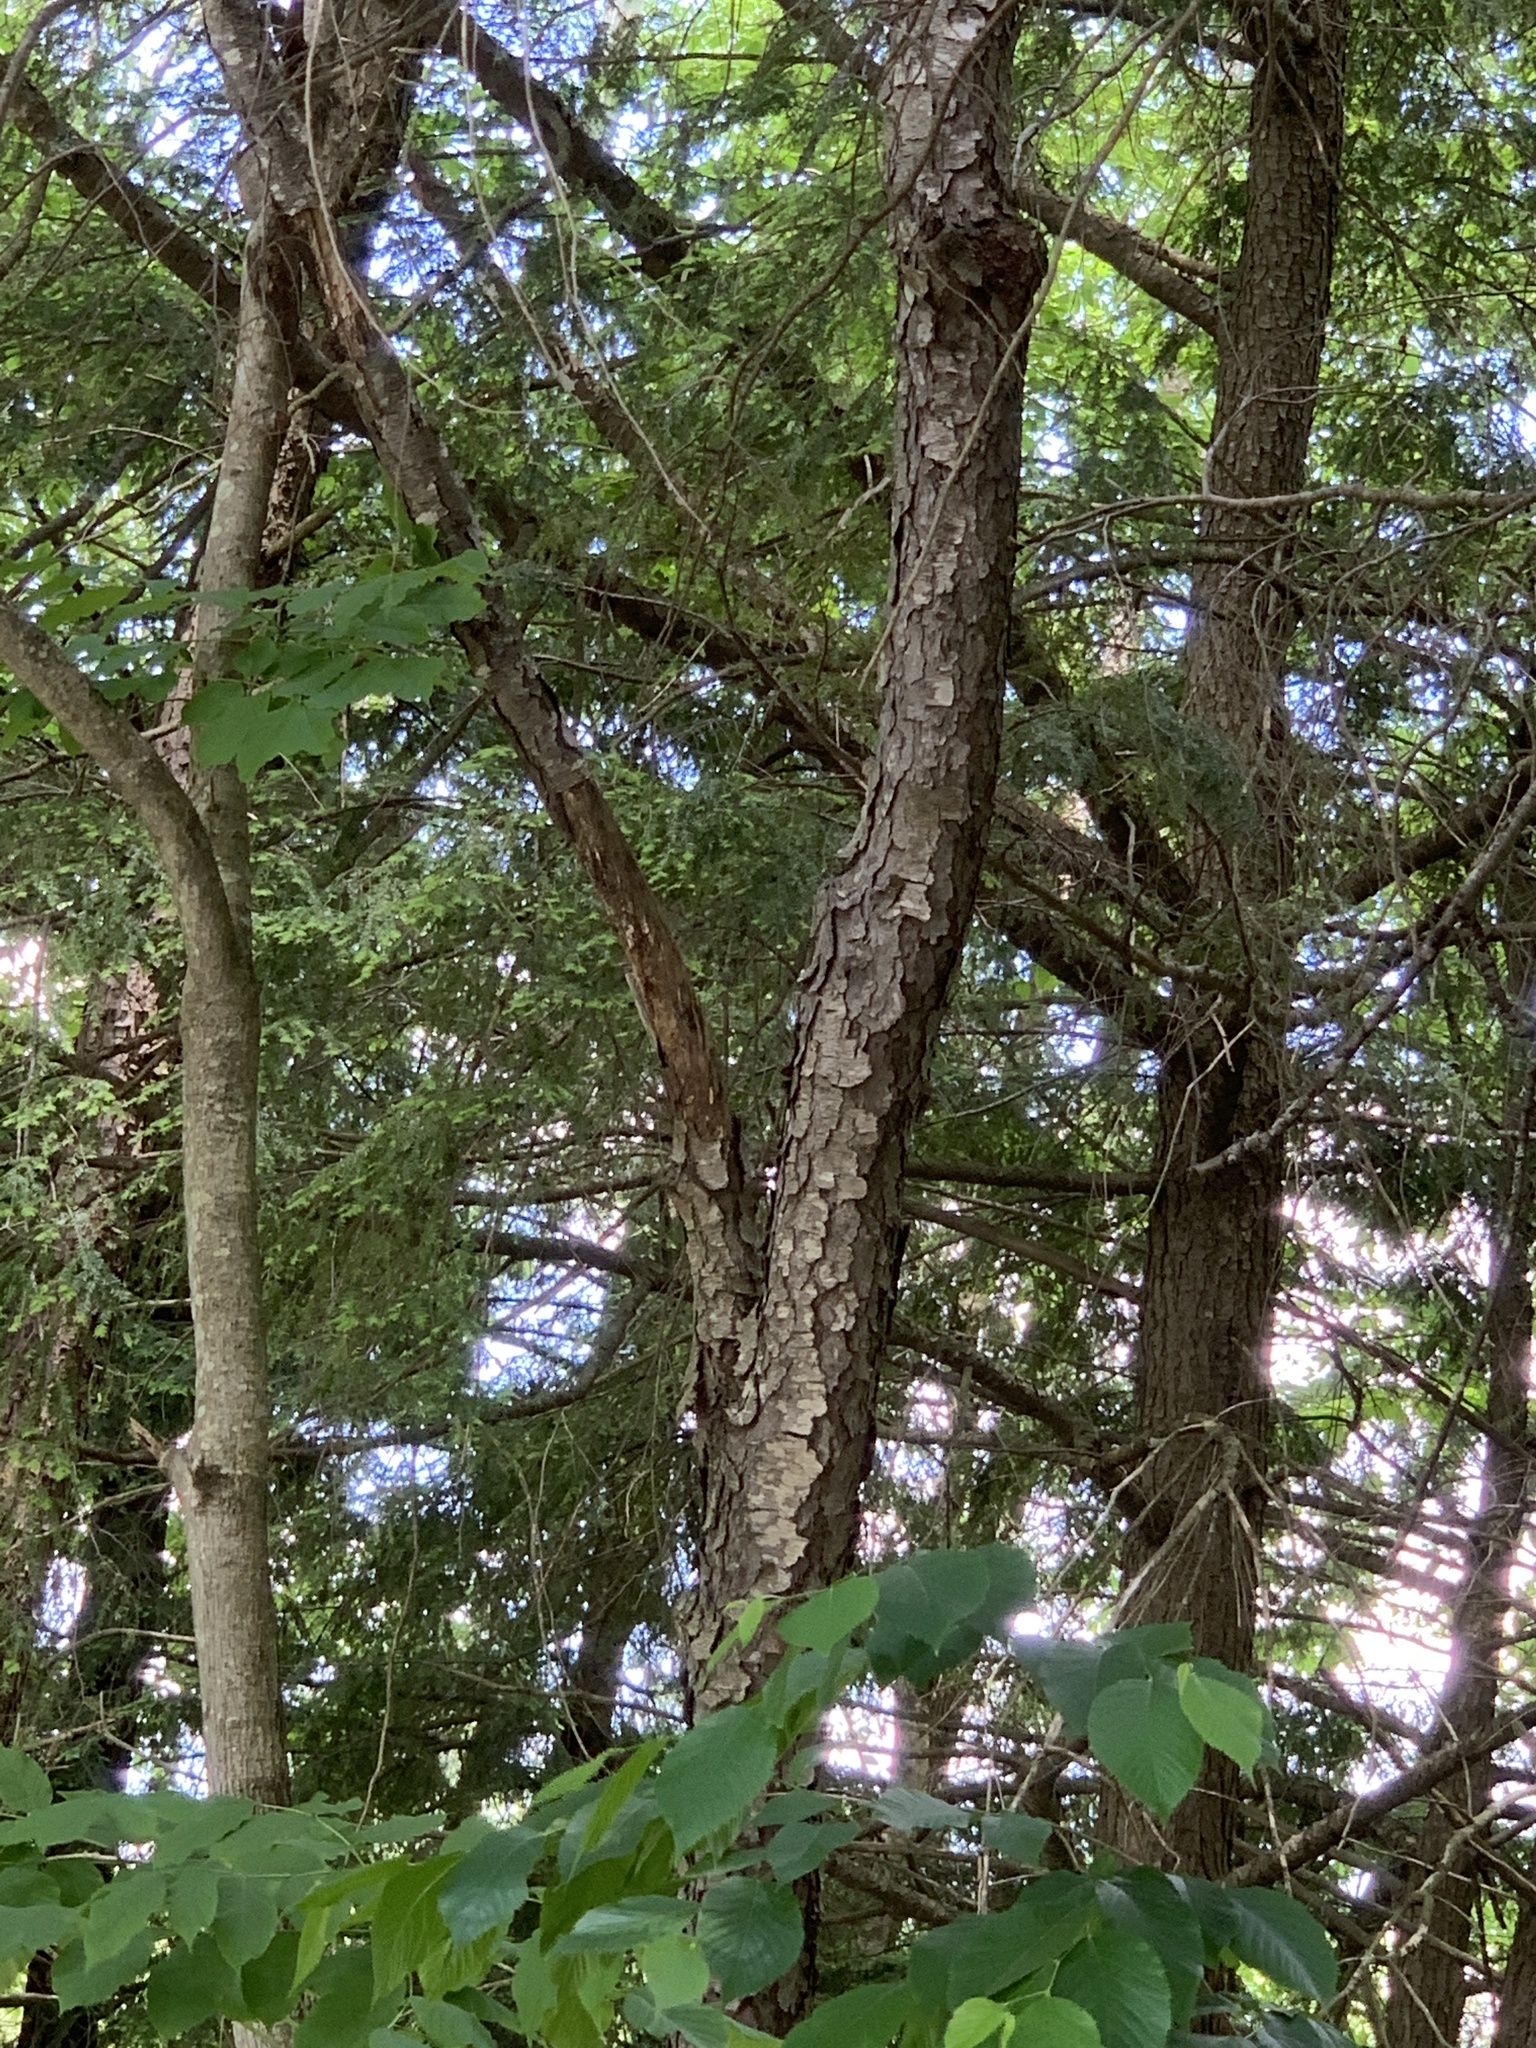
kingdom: Plantae
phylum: Tracheophyta
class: Magnoliopsida
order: Rosales
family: Rosaceae
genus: Prunus
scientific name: Prunus serotina
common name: Black cherry
